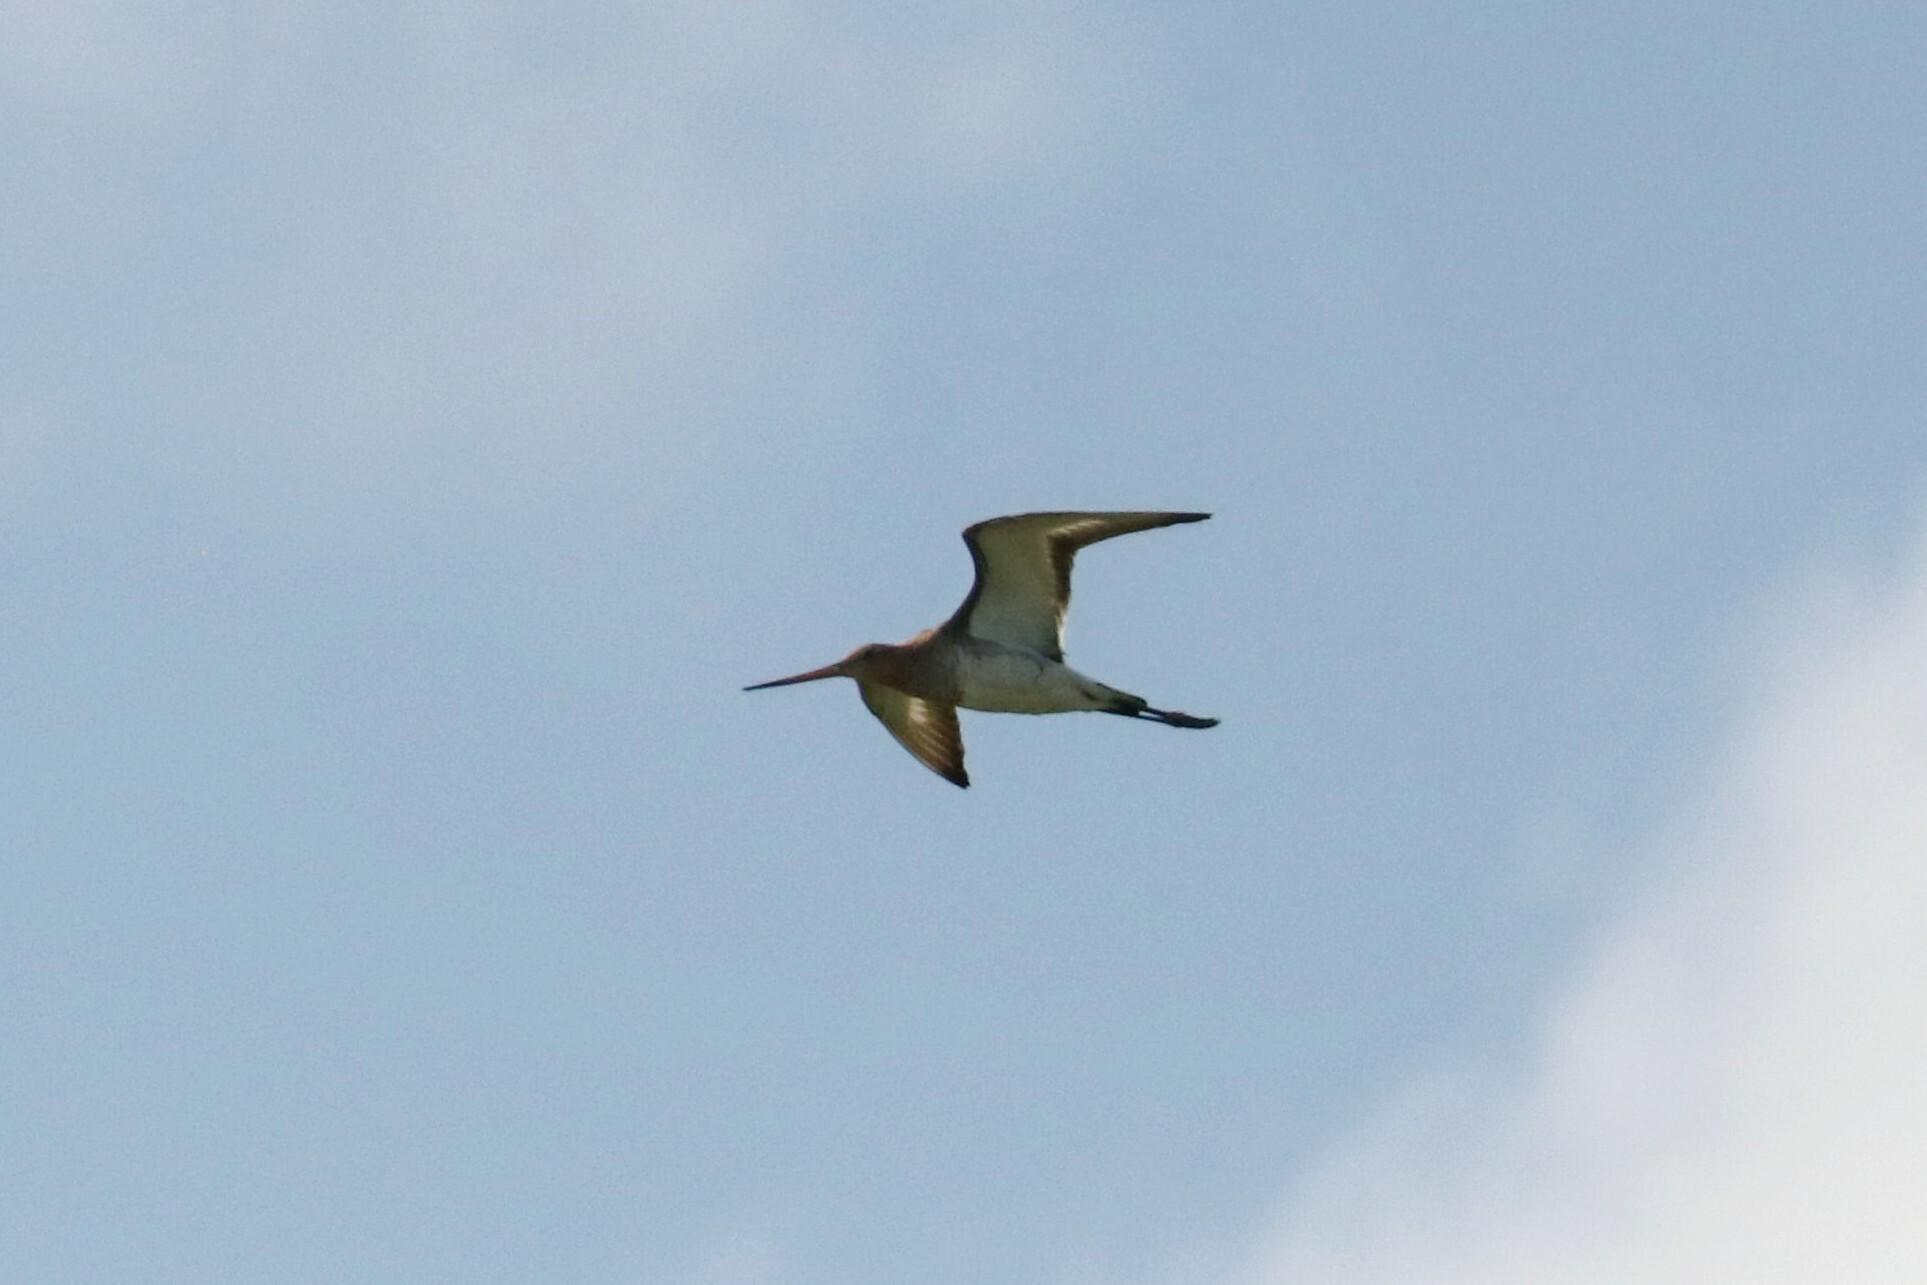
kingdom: Animalia
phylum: Chordata
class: Aves
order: Charadriiformes
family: Scolopacidae
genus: Limosa
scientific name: Limosa limosa
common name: Black-tailed godwit
